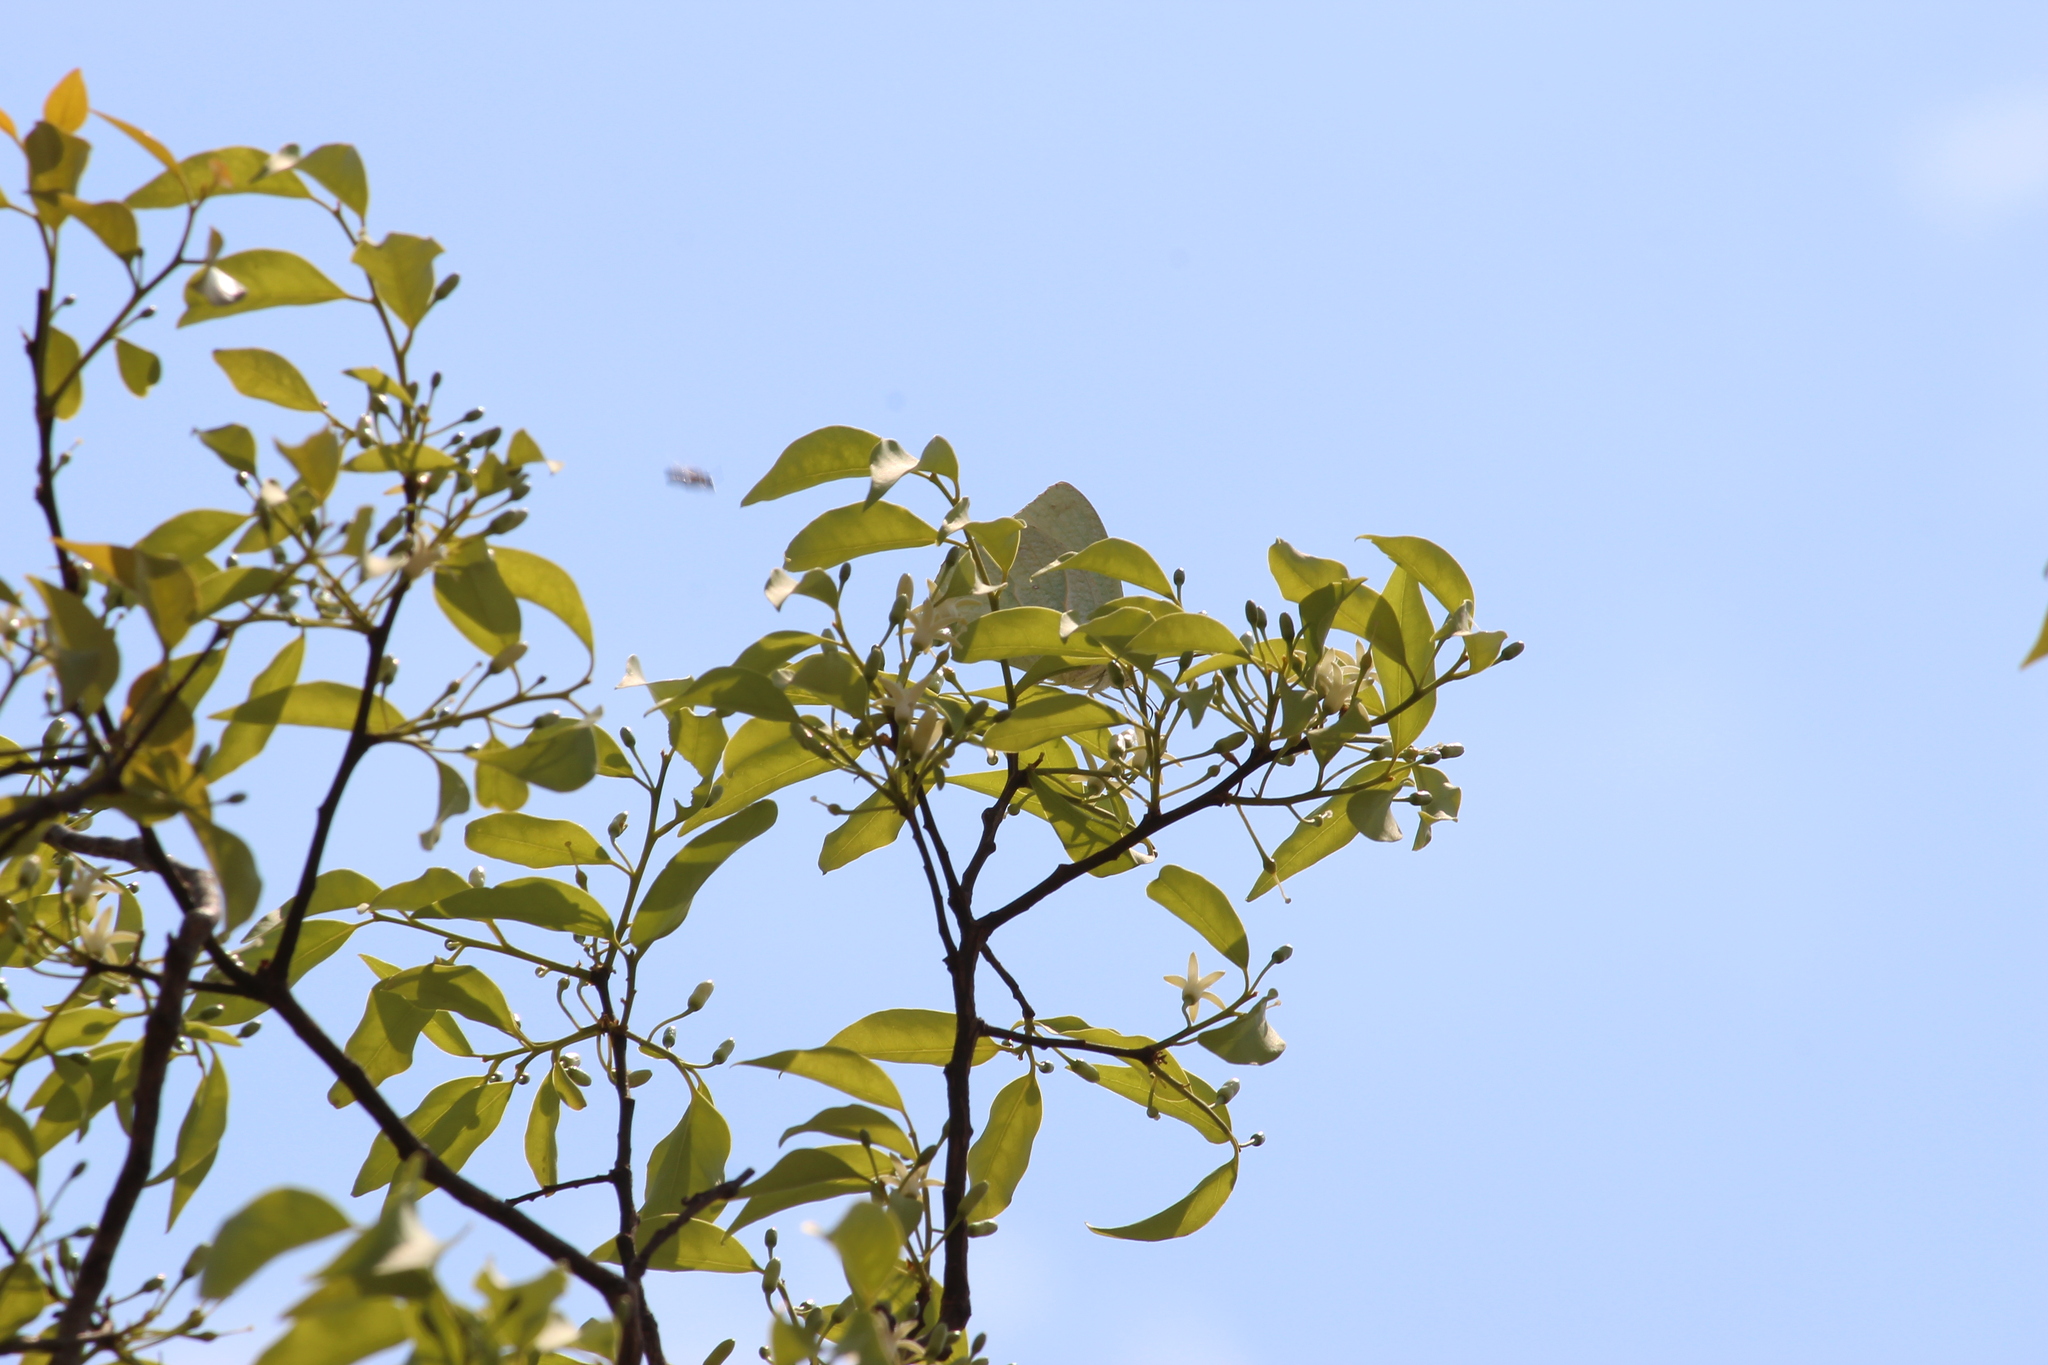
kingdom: Animalia
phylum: Arthropoda
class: Insecta
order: Lepidoptera
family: Pieridae
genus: Catopsilia
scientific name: Catopsilia florella
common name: African migrant
